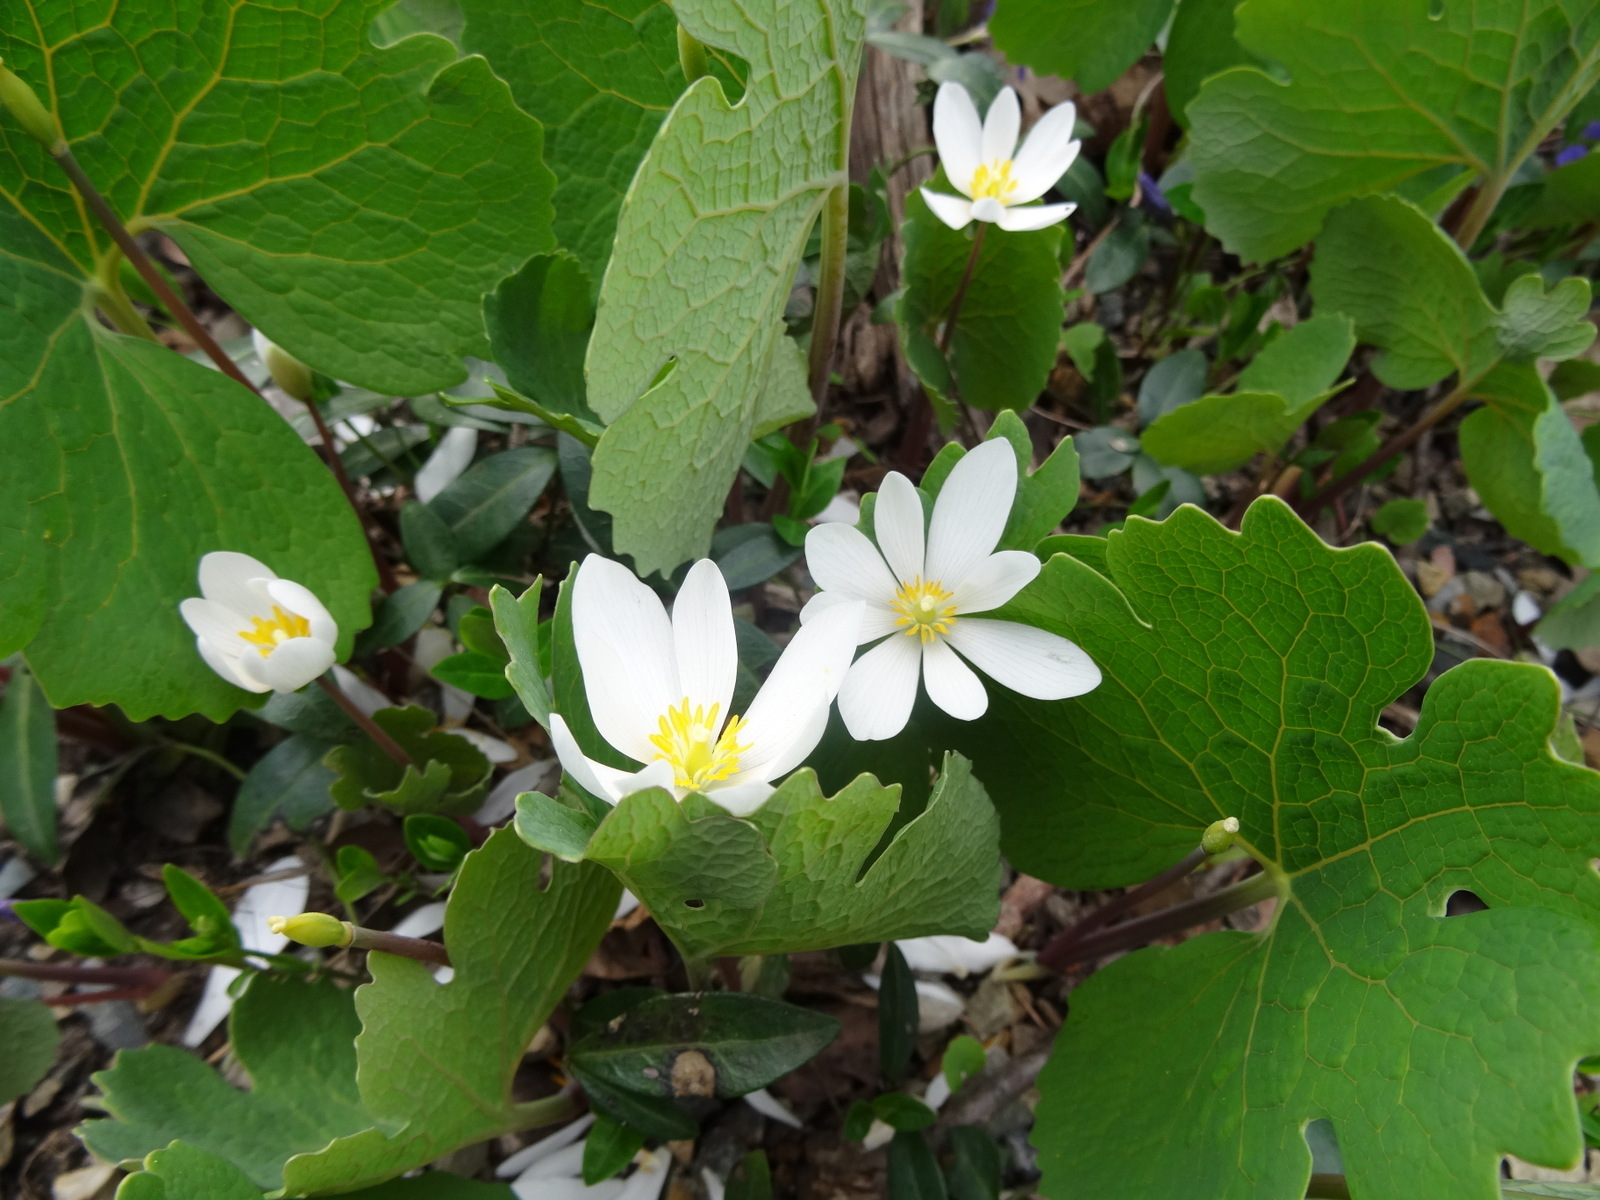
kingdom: Plantae
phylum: Tracheophyta
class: Magnoliopsida
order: Ranunculales
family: Papaveraceae
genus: Sanguinaria
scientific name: Sanguinaria canadensis
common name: Bloodroot
